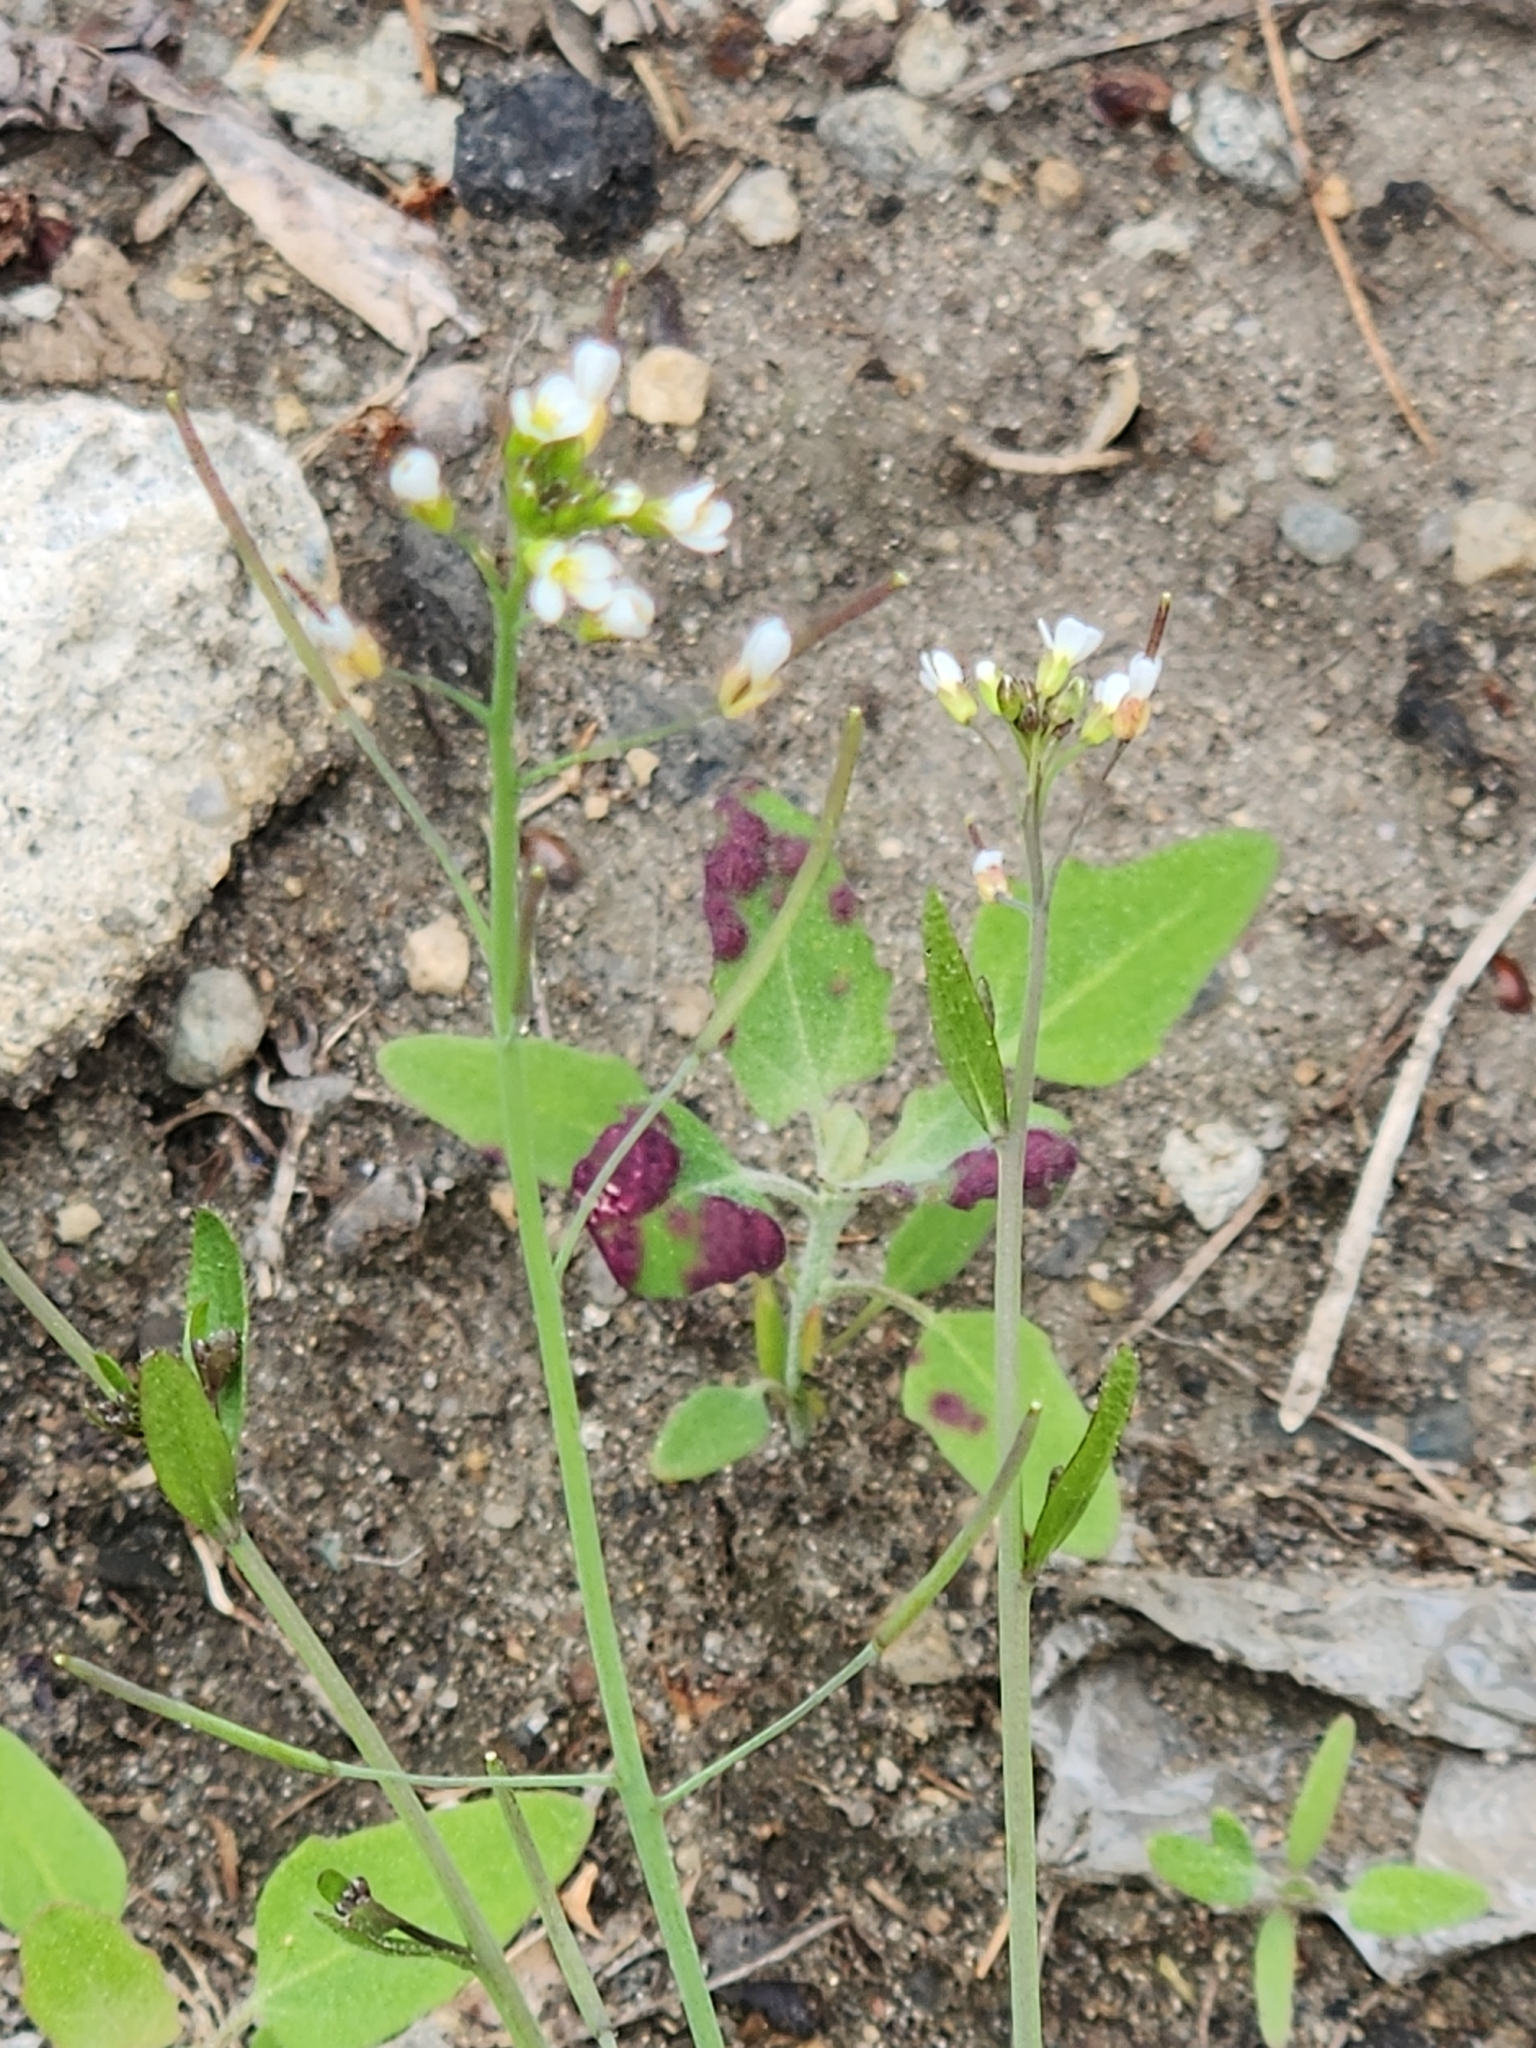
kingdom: Plantae
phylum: Tracheophyta
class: Magnoliopsida
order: Brassicales
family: Brassicaceae
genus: Arabidopsis
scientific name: Arabidopsis thaliana
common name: Thale cress
